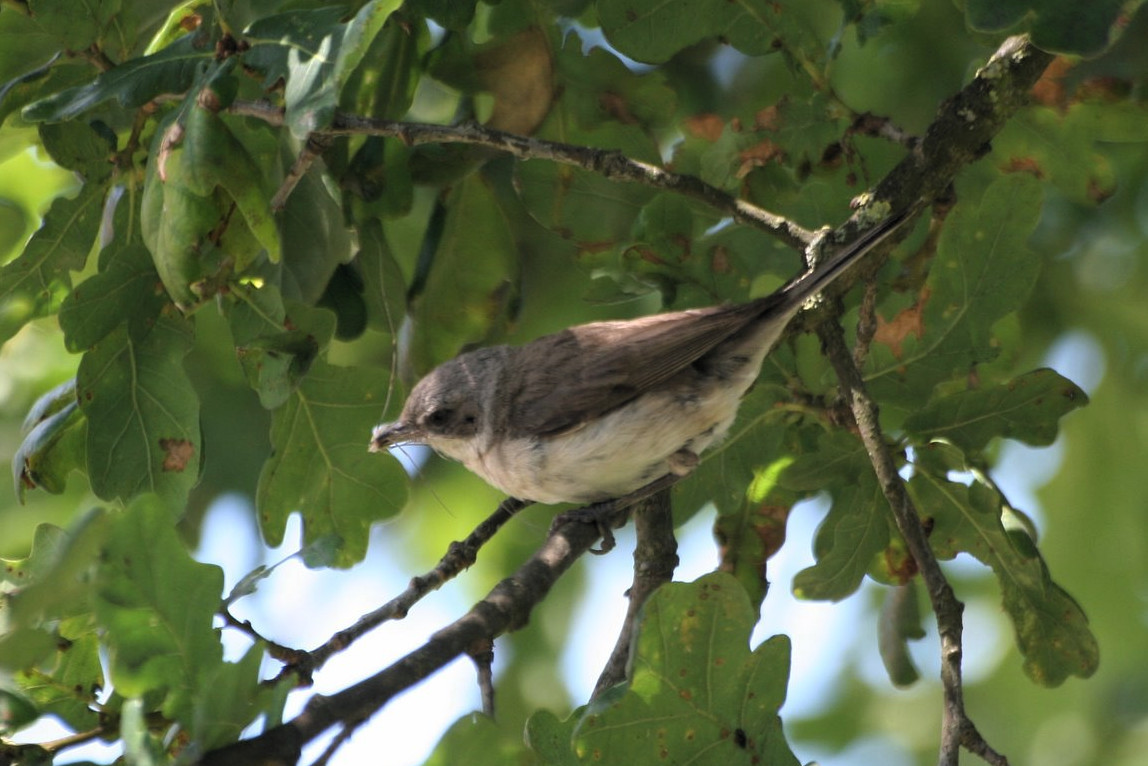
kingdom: Animalia
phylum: Chordata
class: Aves
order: Passeriformes
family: Sylviidae
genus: Sylvia
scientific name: Sylvia curruca
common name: Lesser whitethroat
